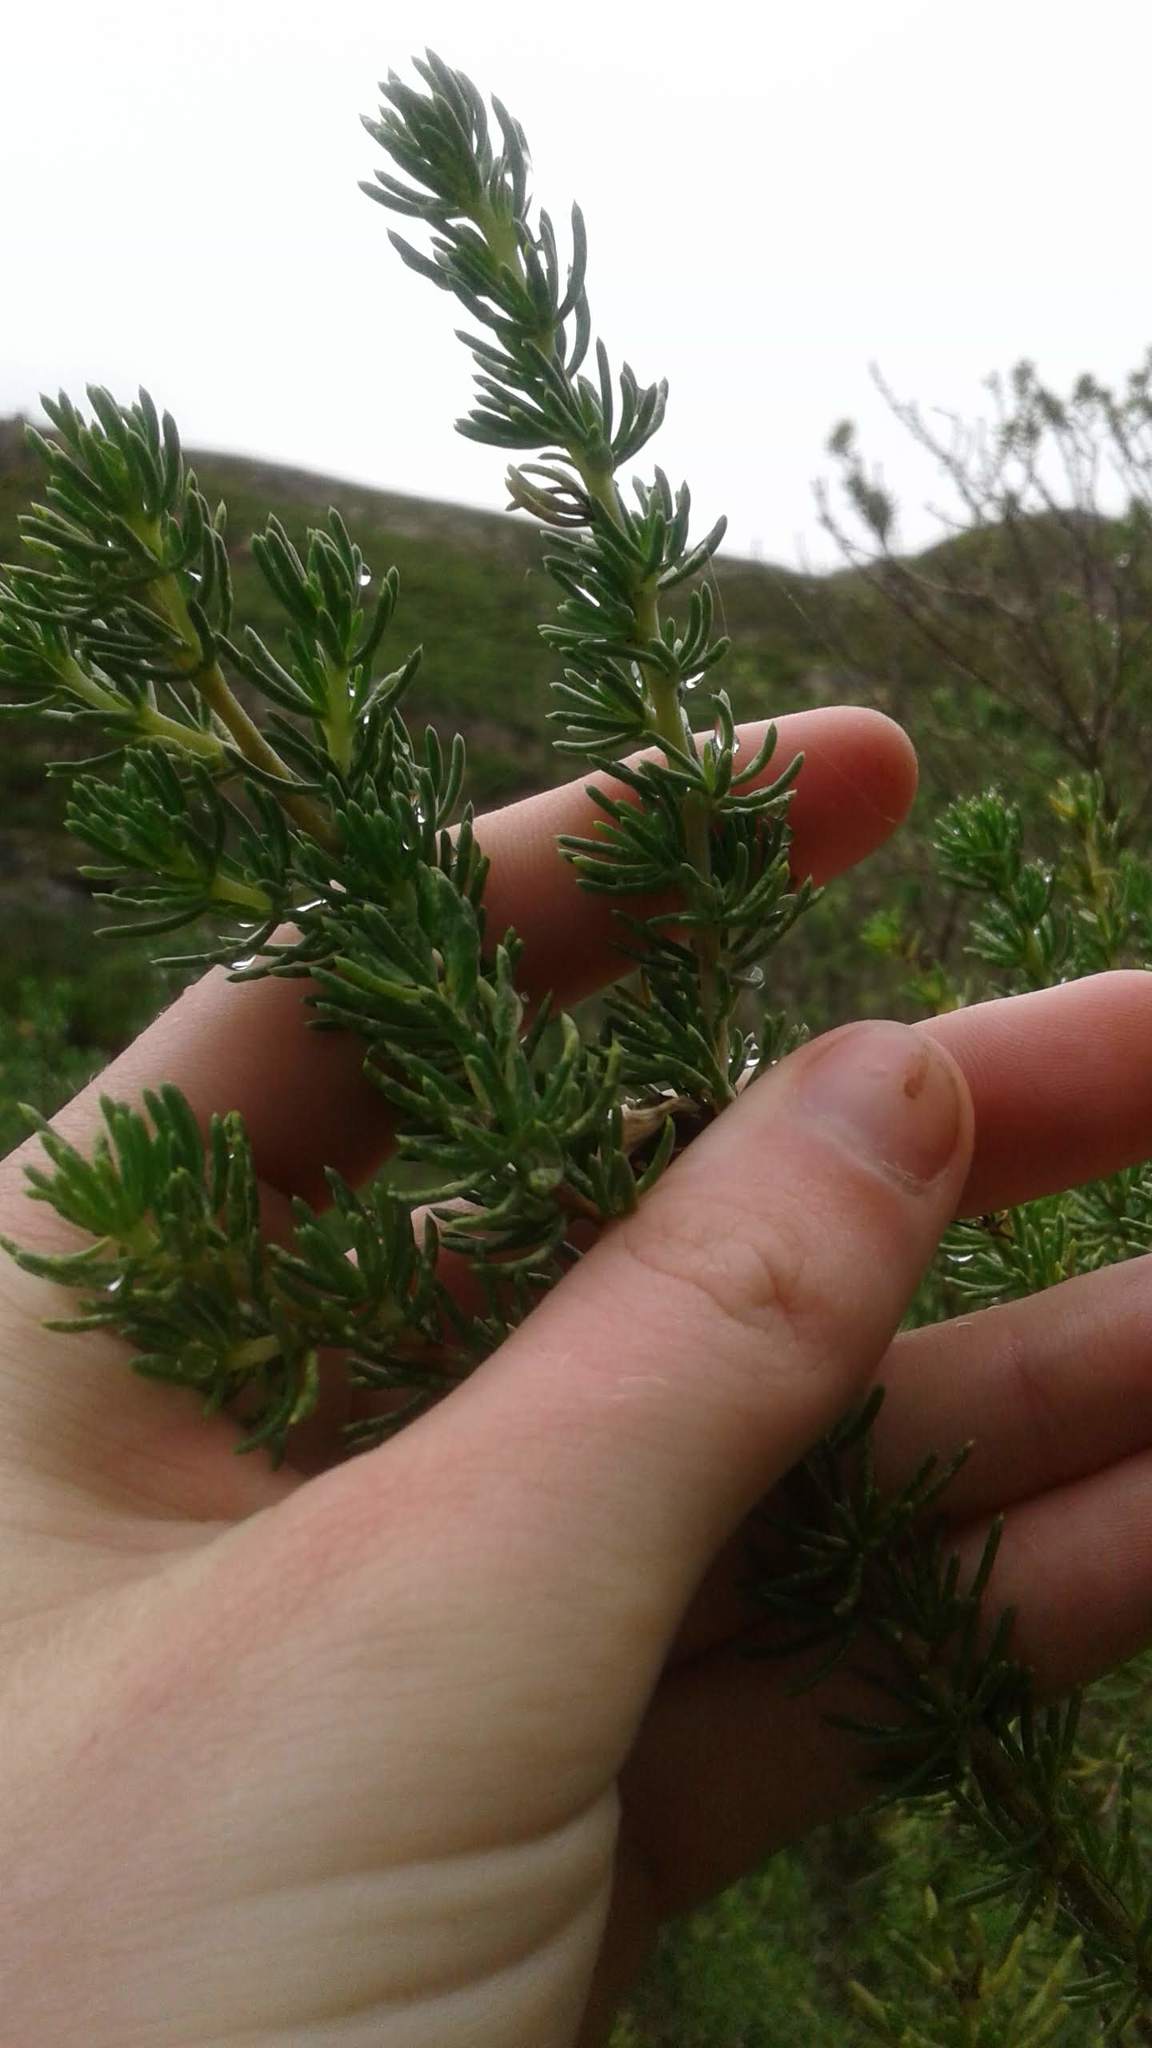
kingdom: Plantae
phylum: Tracheophyta
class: Magnoliopsida
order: Fabales
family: Fabaceae
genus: Aspalathus
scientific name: Aspalathus excelsa
